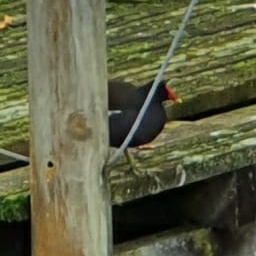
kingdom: Animalia
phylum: Chordata
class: Aves
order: Gruiformes
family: Rallidae
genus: Gallinula
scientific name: Gallinula chloropus
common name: Common moorhen
